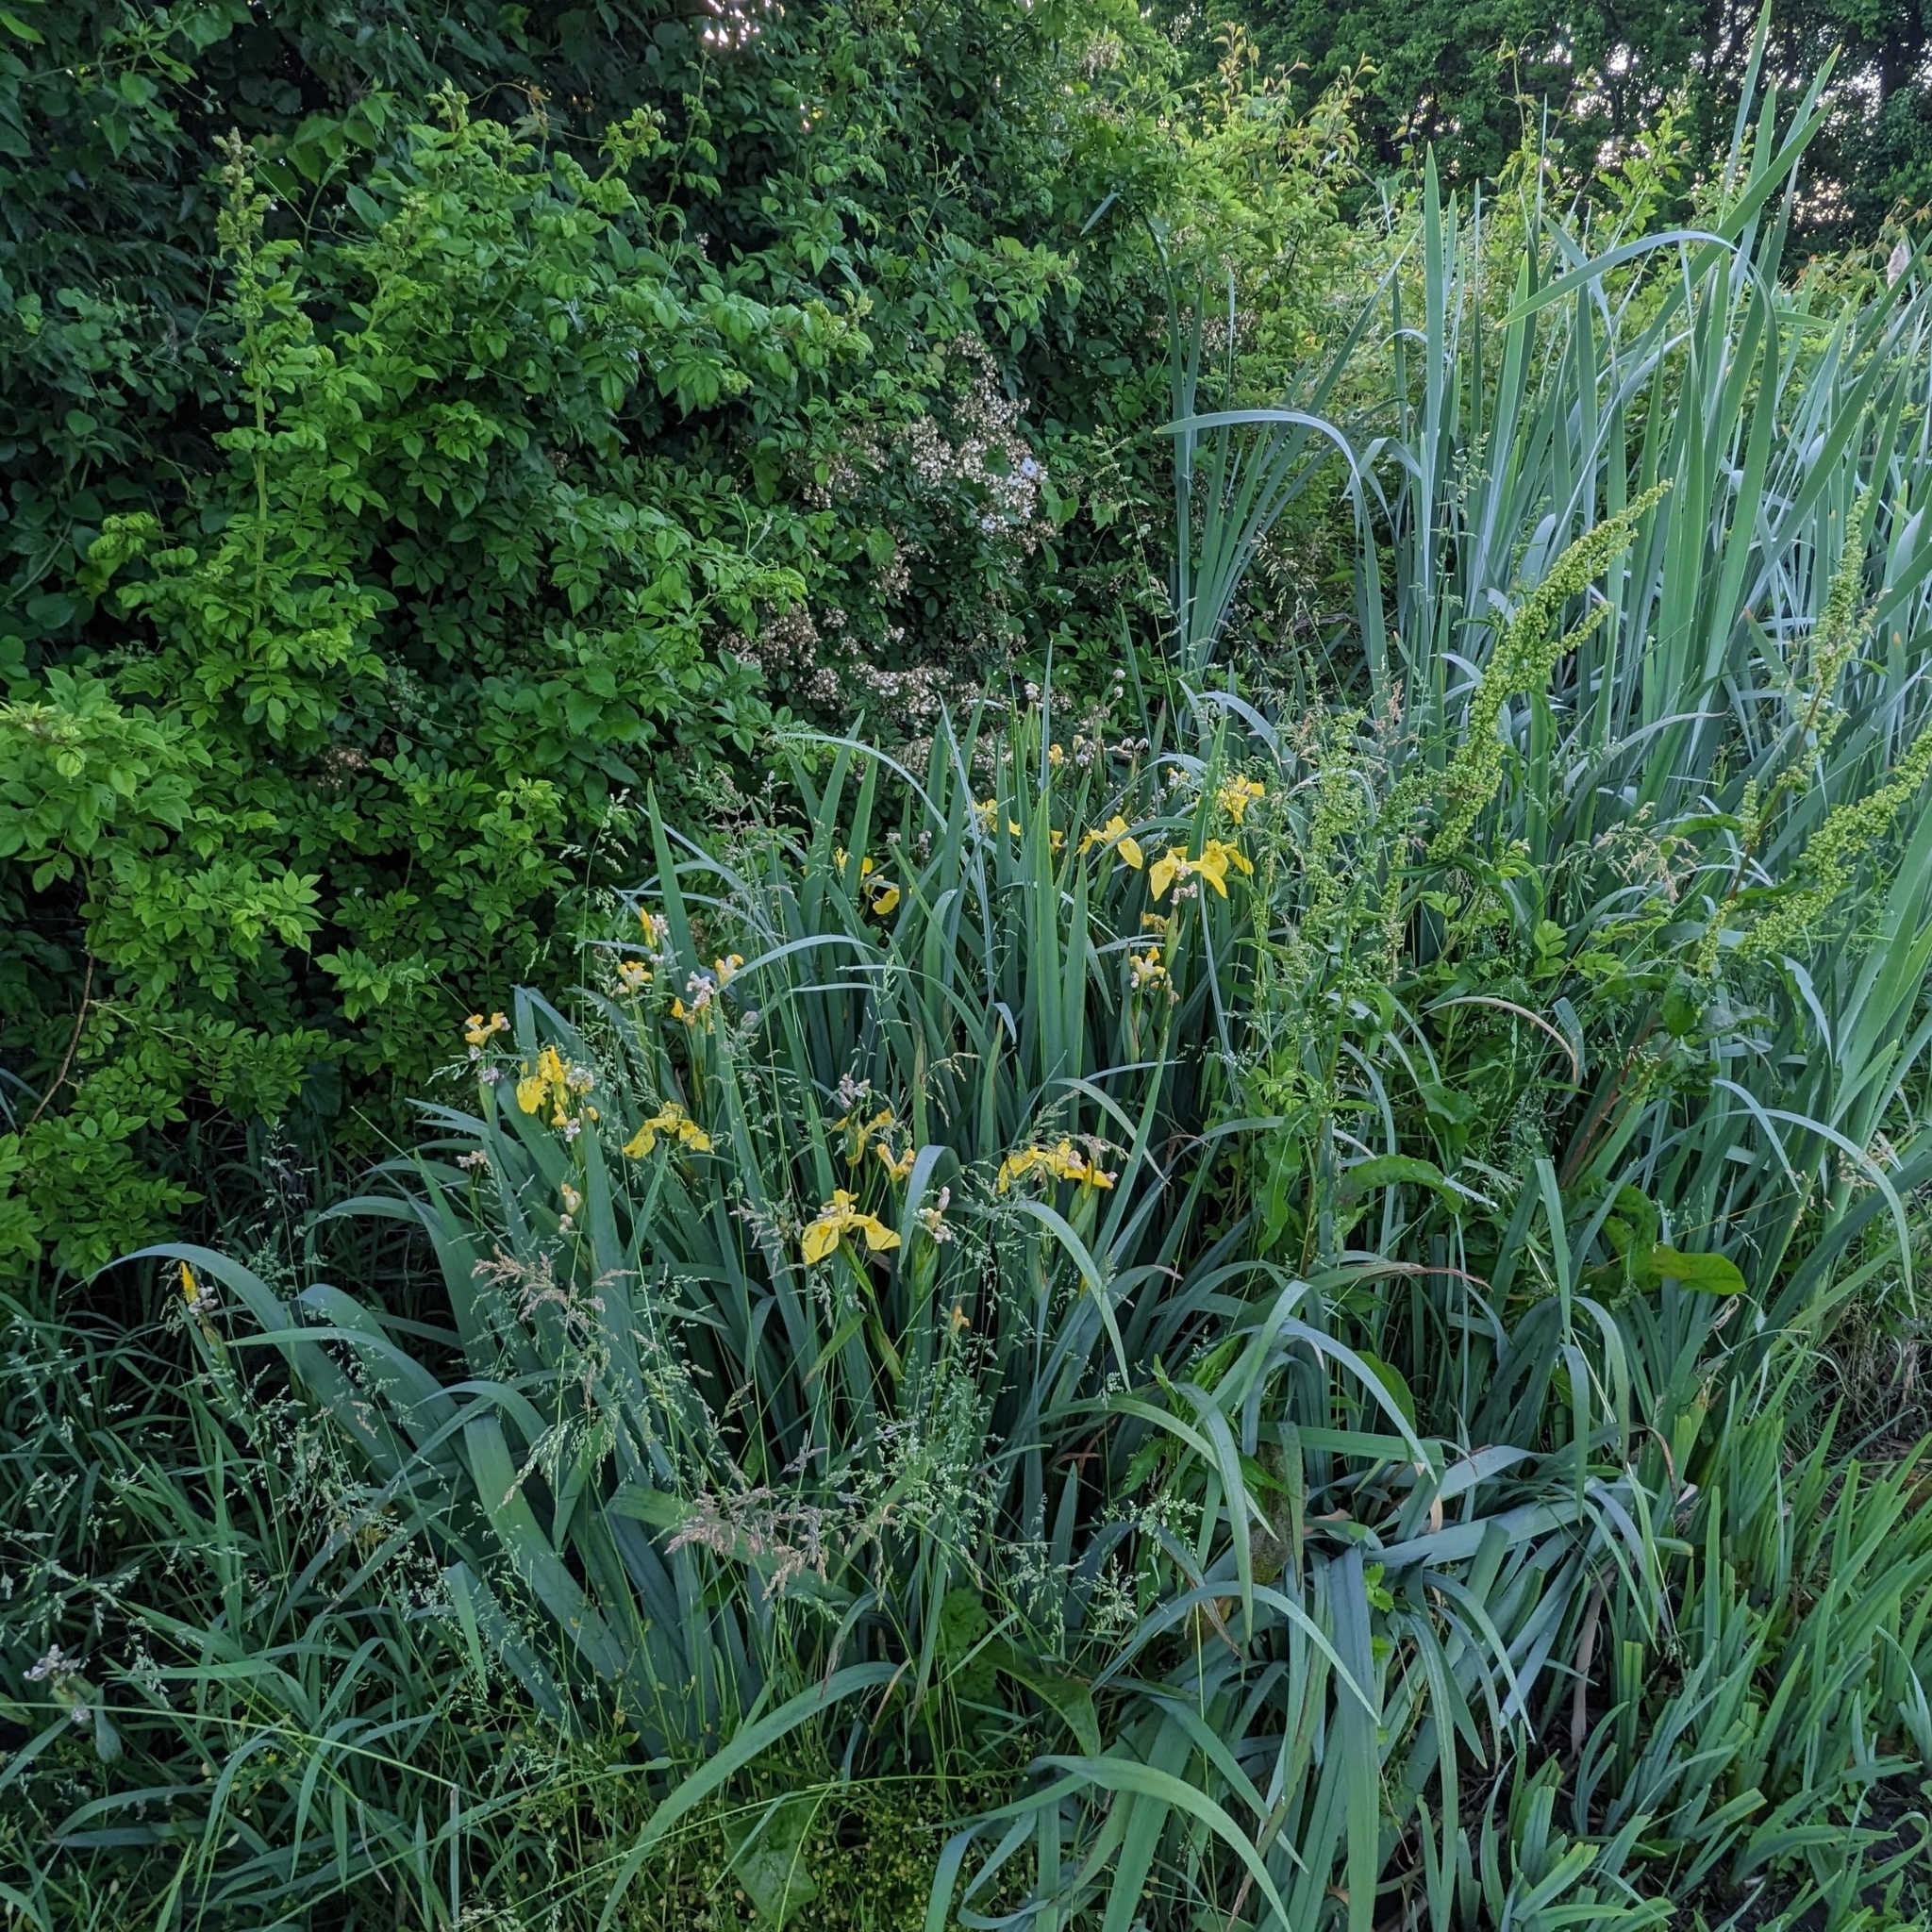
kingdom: Plantae
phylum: Tracheophyta
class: Liliopsida
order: Asparagales
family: Iridaceae
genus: Iris
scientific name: Iris pseudacorus
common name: Yellow flag
